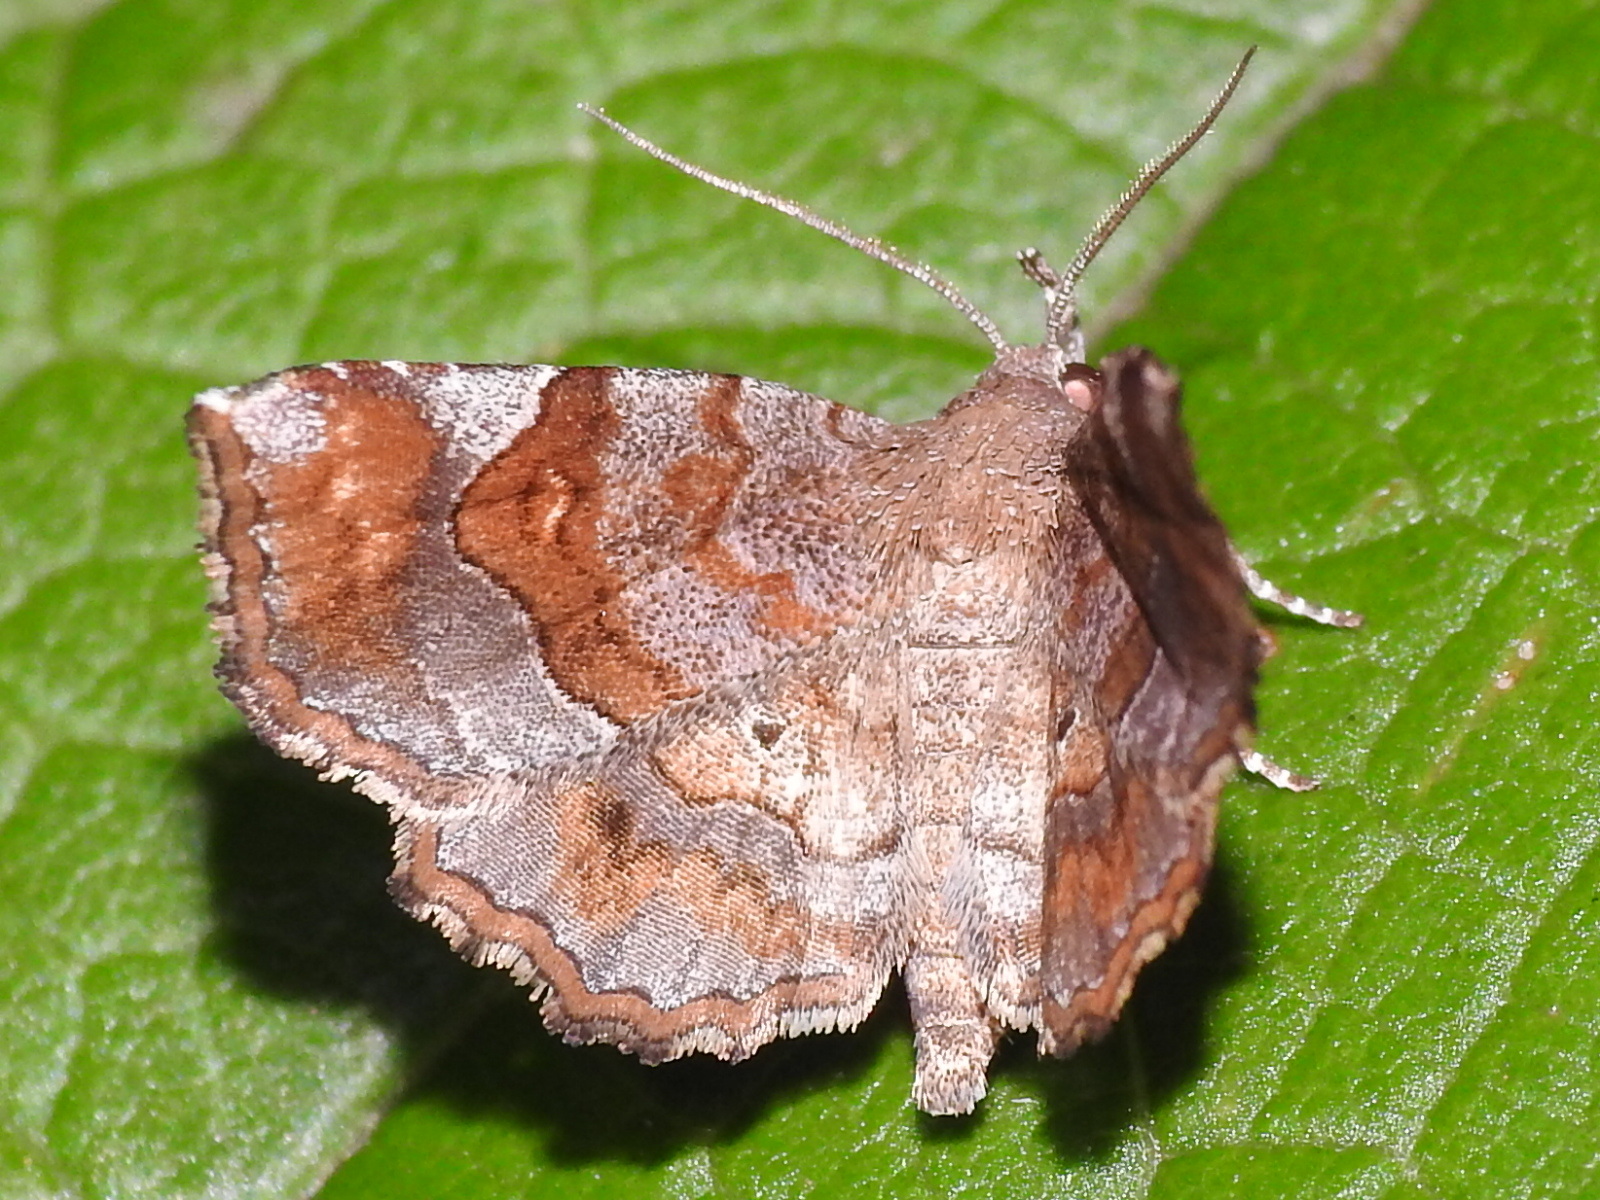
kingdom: Animalia
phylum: Arthropoda
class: Insecta
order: Lepidoptera
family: Erebidae
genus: Pangrapta
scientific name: Pangrapta decoralis
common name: Decorated owlet
